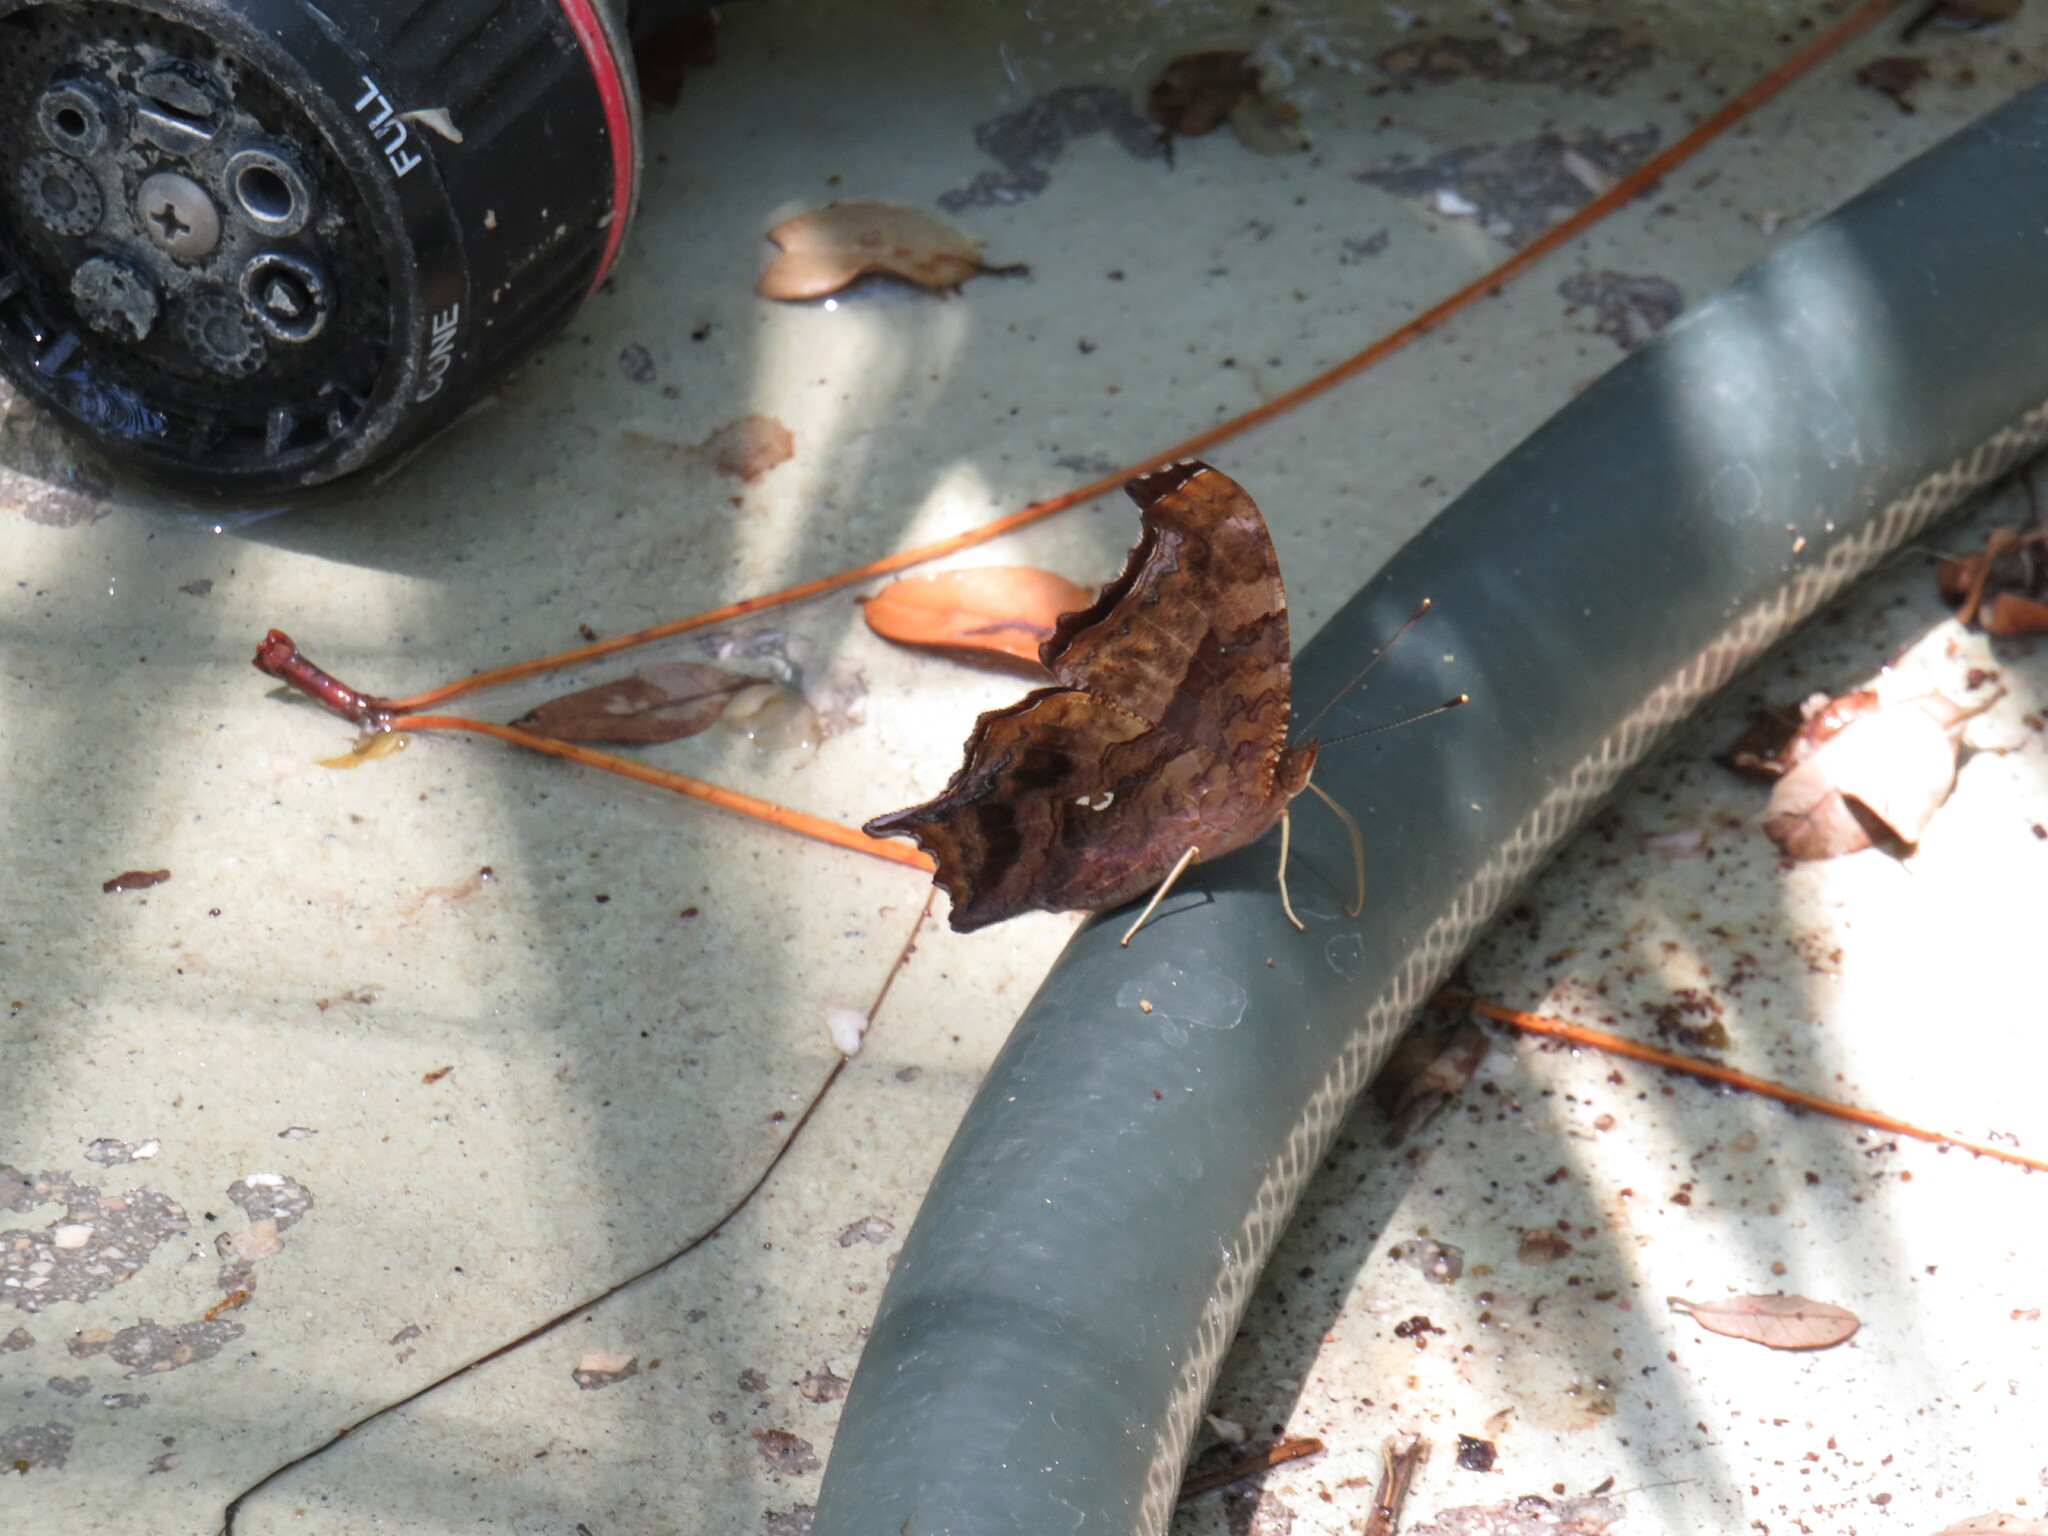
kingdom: Animalia
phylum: Arthropoda
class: Insecta
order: Lepidoptera
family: Nymphalidae
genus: Polygonia
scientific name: Polygonia interrogationis
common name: Question mark
